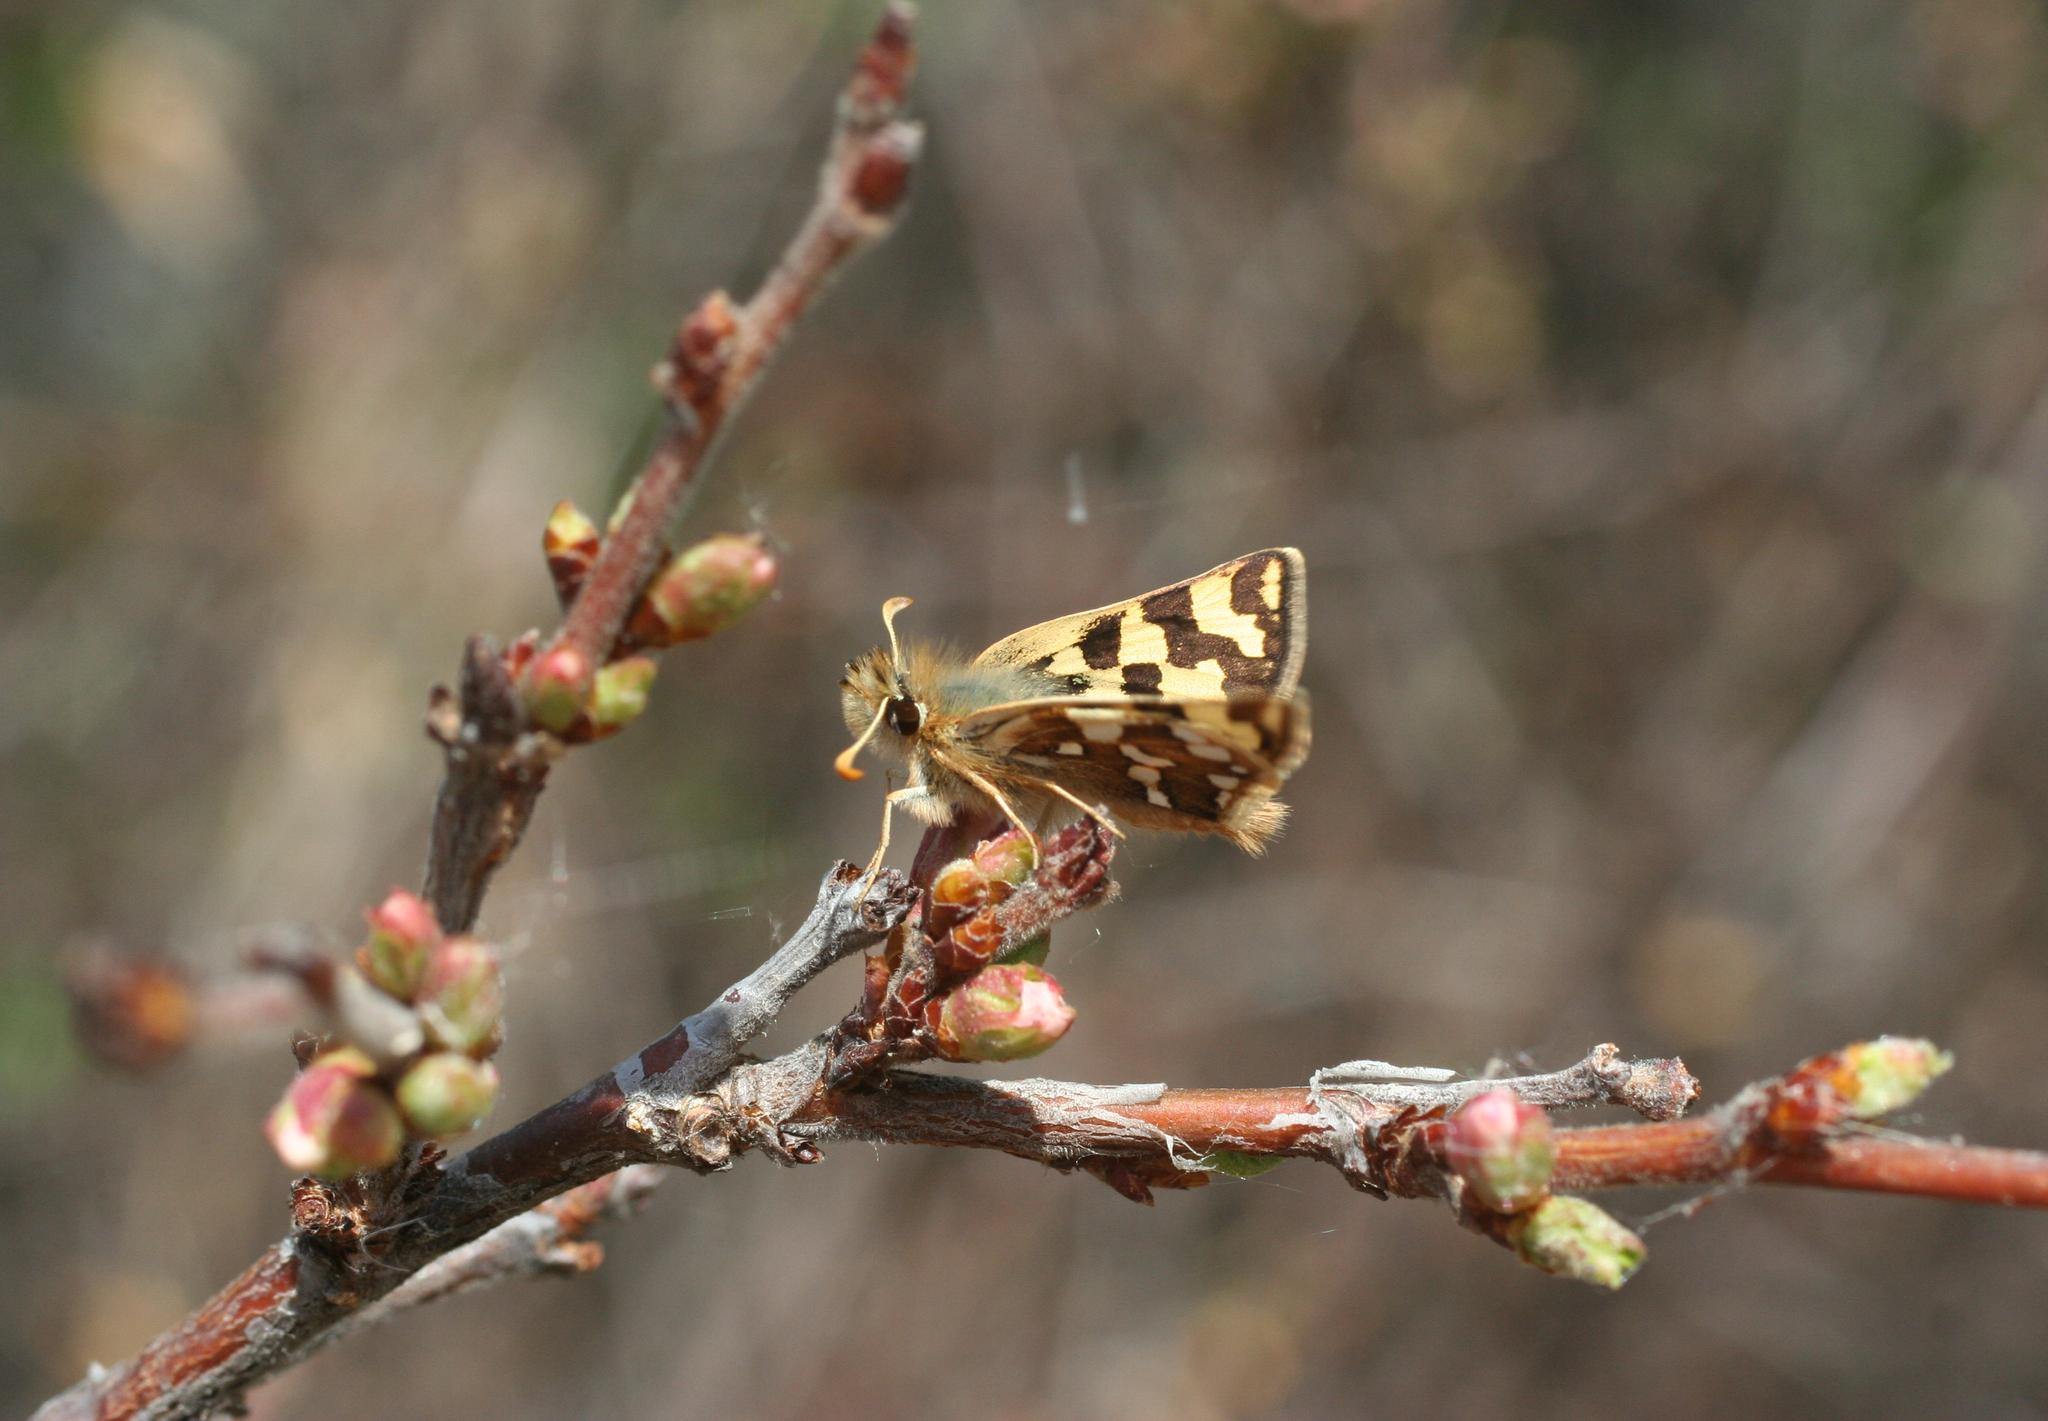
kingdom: Animalia
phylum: Arthropoda
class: Insecta
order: Lepidoptera
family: Hesperiidae
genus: Carterocephalus
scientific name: Carterocephalus argyrostigma
